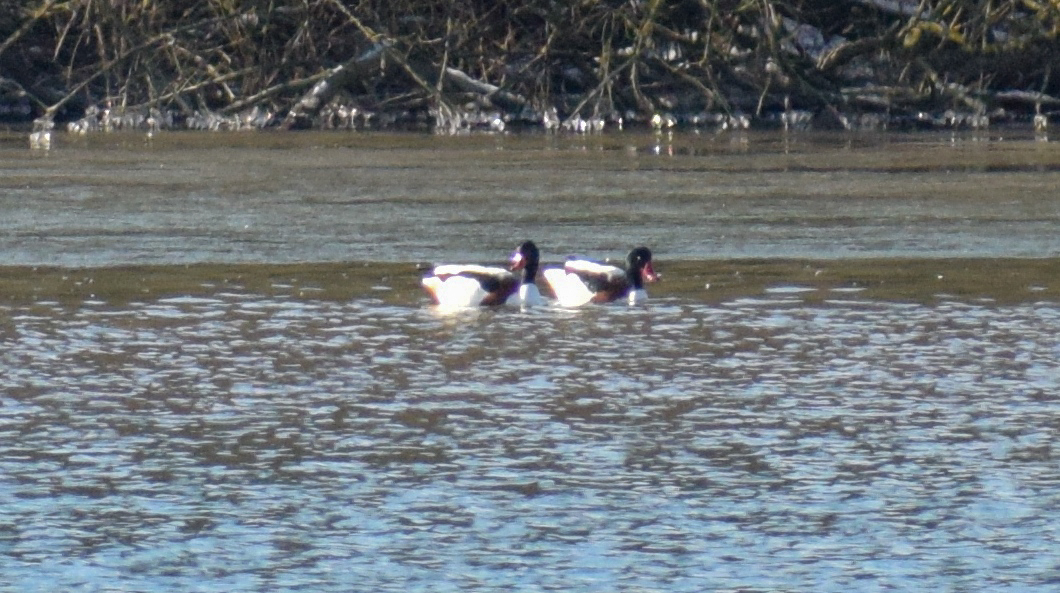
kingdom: Animalia
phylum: Chordata
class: Aves
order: Anseriformes
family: Anatidae
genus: Tadorna
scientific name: Tadorna tadorna
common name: Common shelduck
